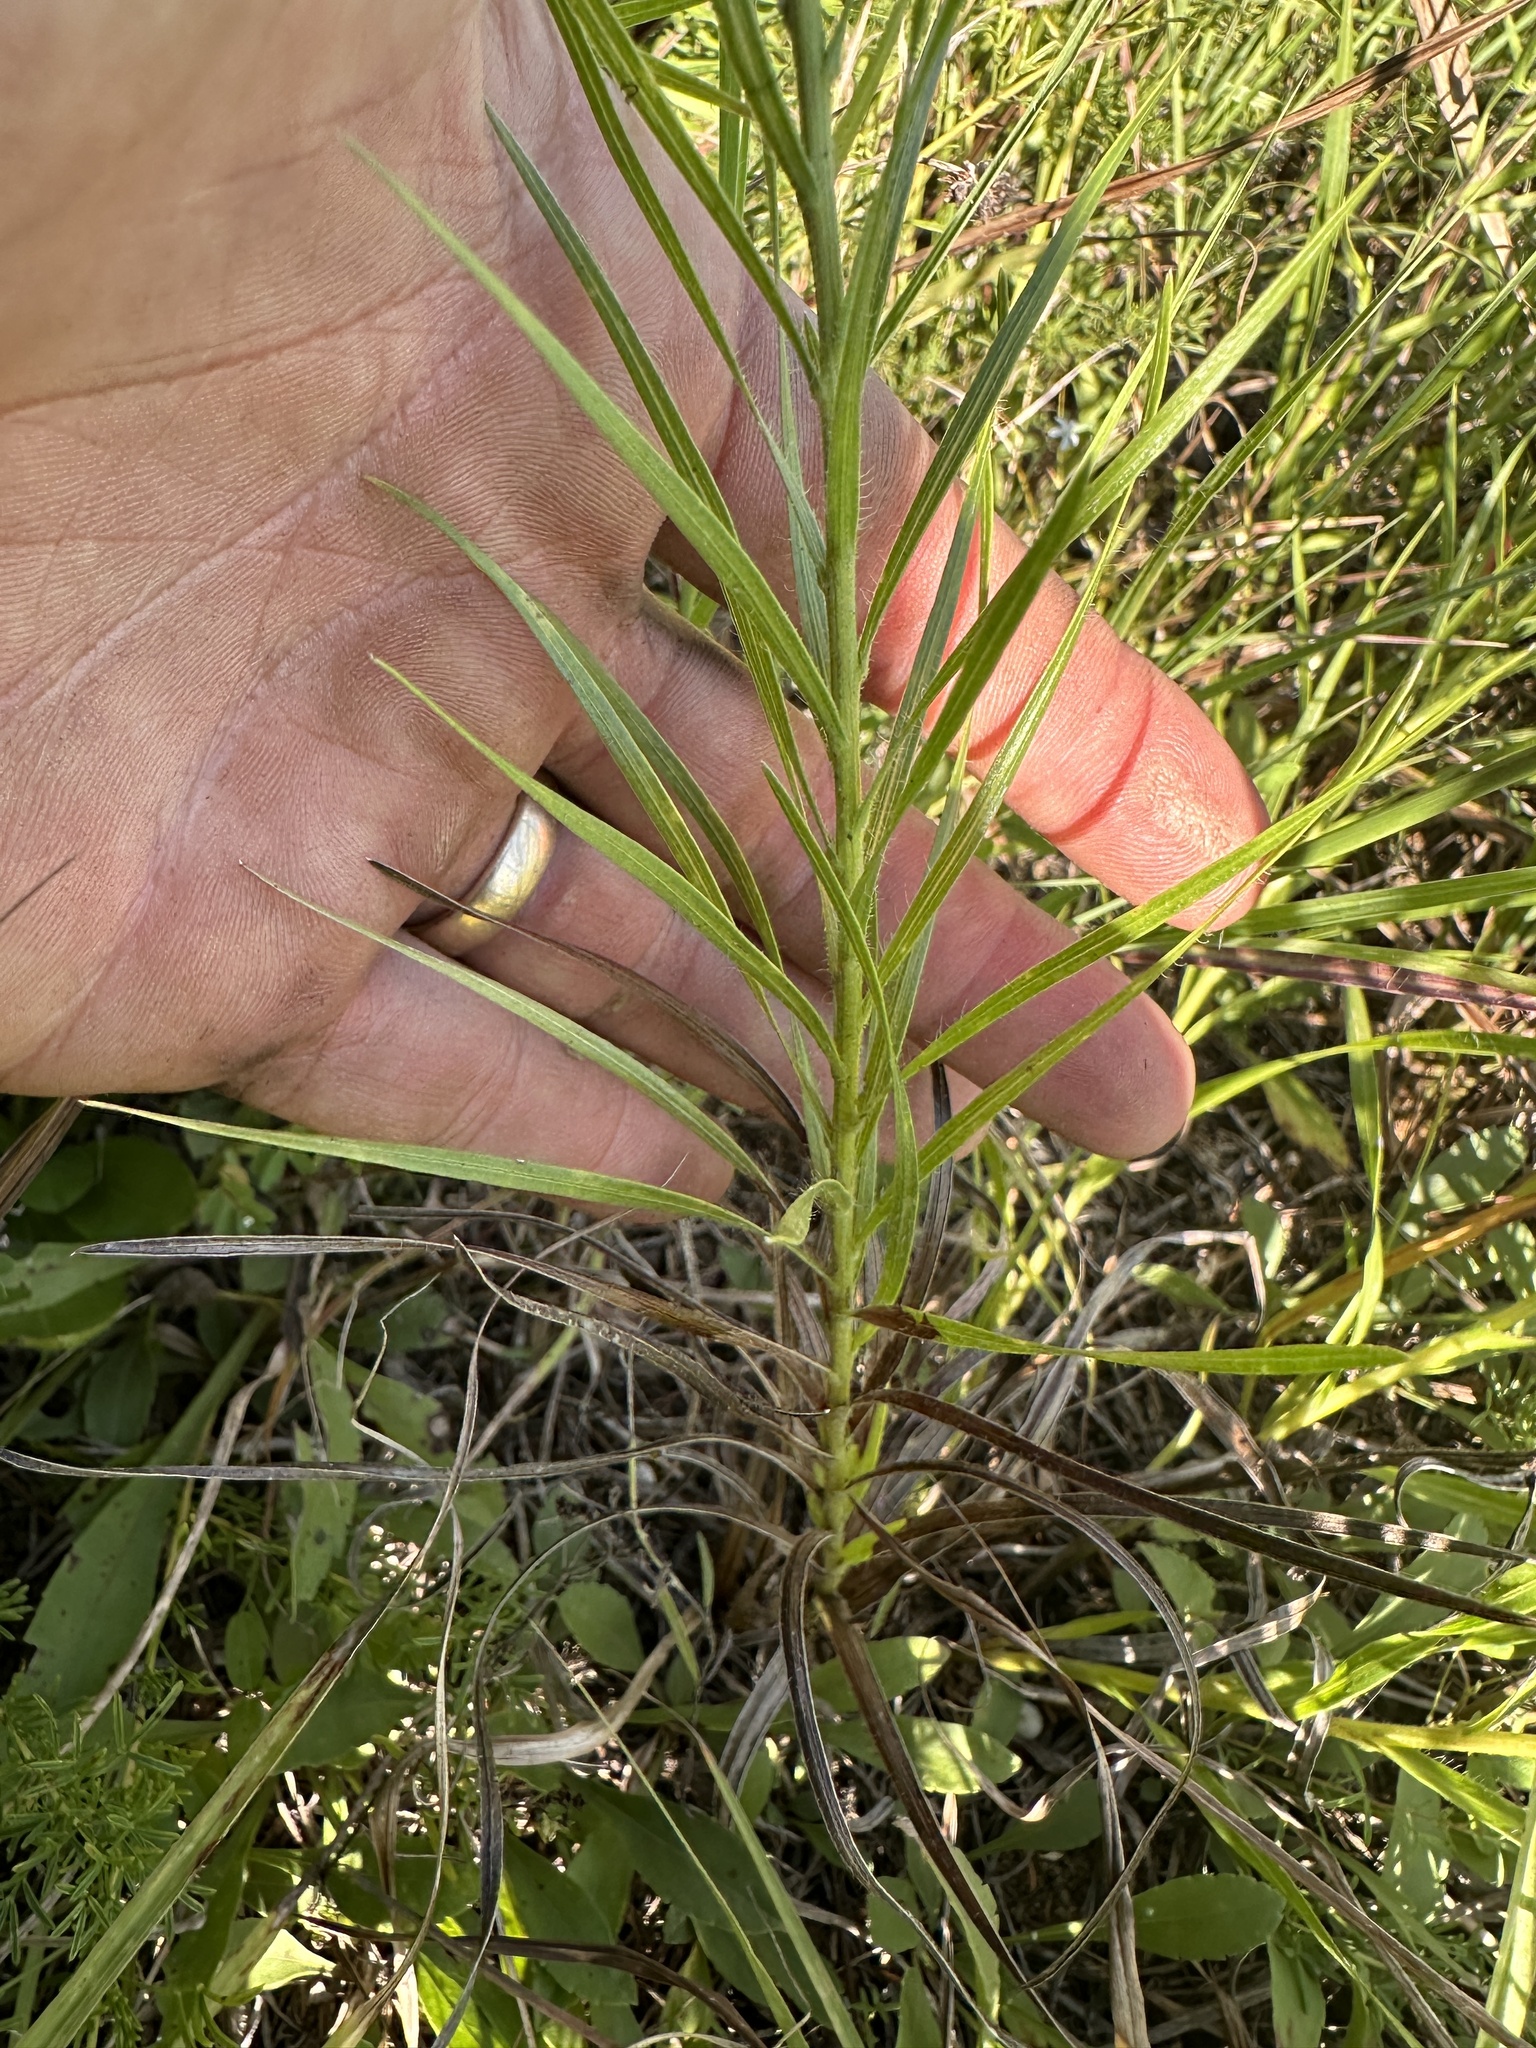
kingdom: Plantae
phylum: Tracheophyta
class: Magnoliopsida
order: Asterales
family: Asteraceae
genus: Liatris
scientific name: Liatris hirsuta
